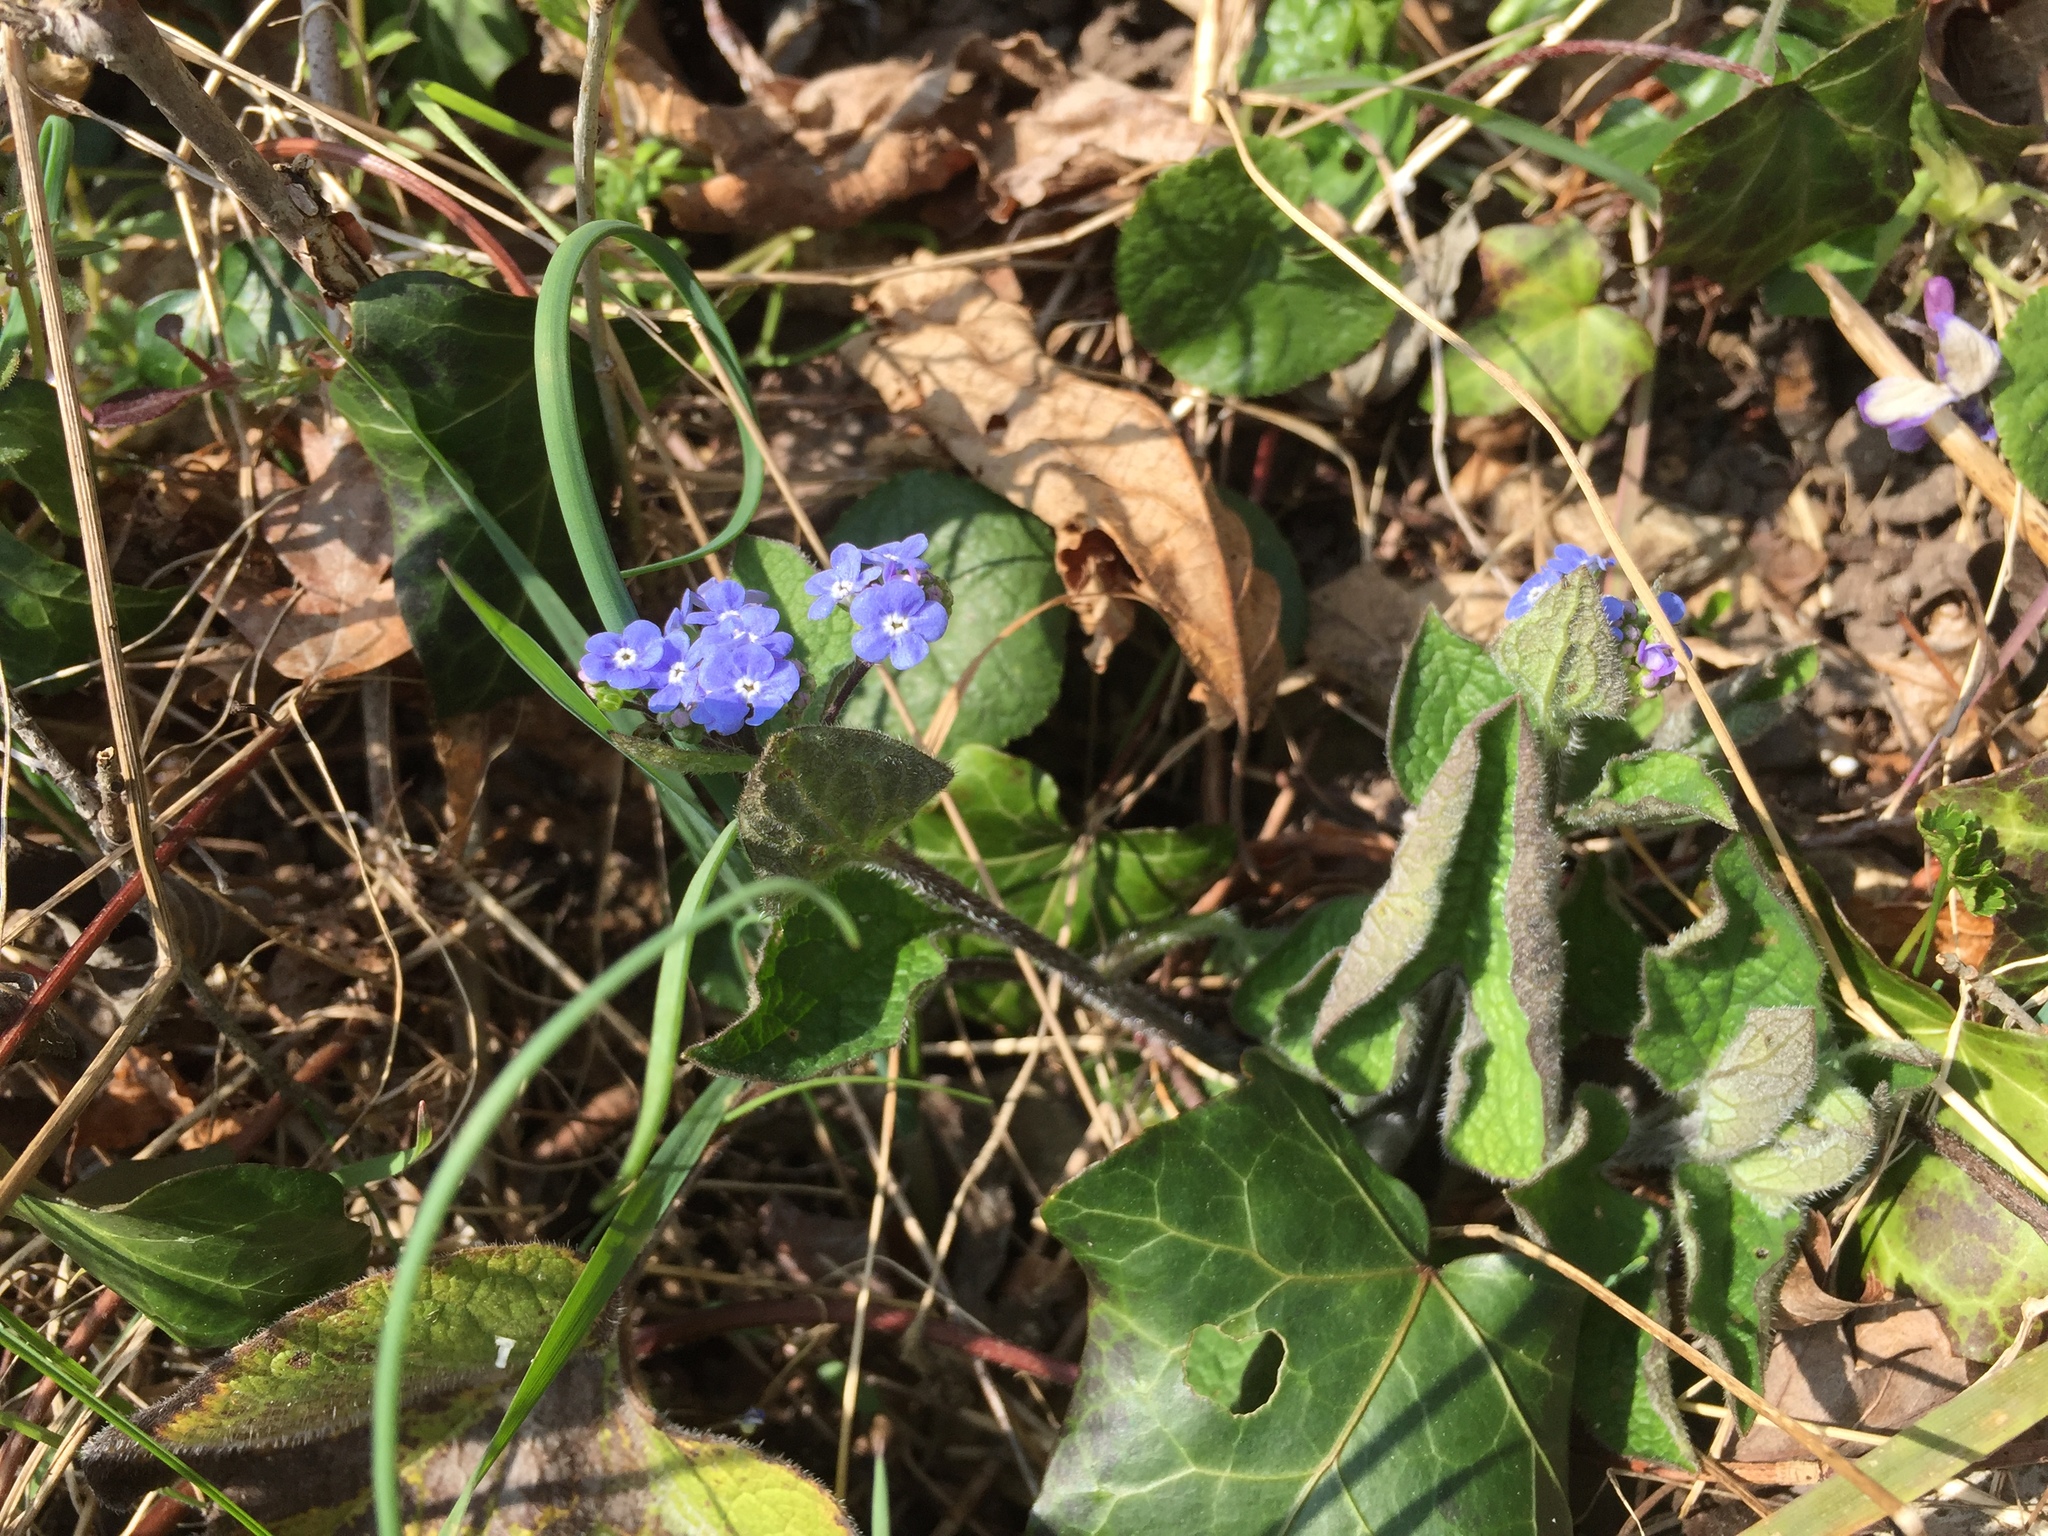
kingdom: Plantae
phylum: Tracheophyta
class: Magnoliopsida
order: Boraginales
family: Boraginaceae
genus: Brunnera
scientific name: Brunnera macrophylla
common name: Great forget-me-not
